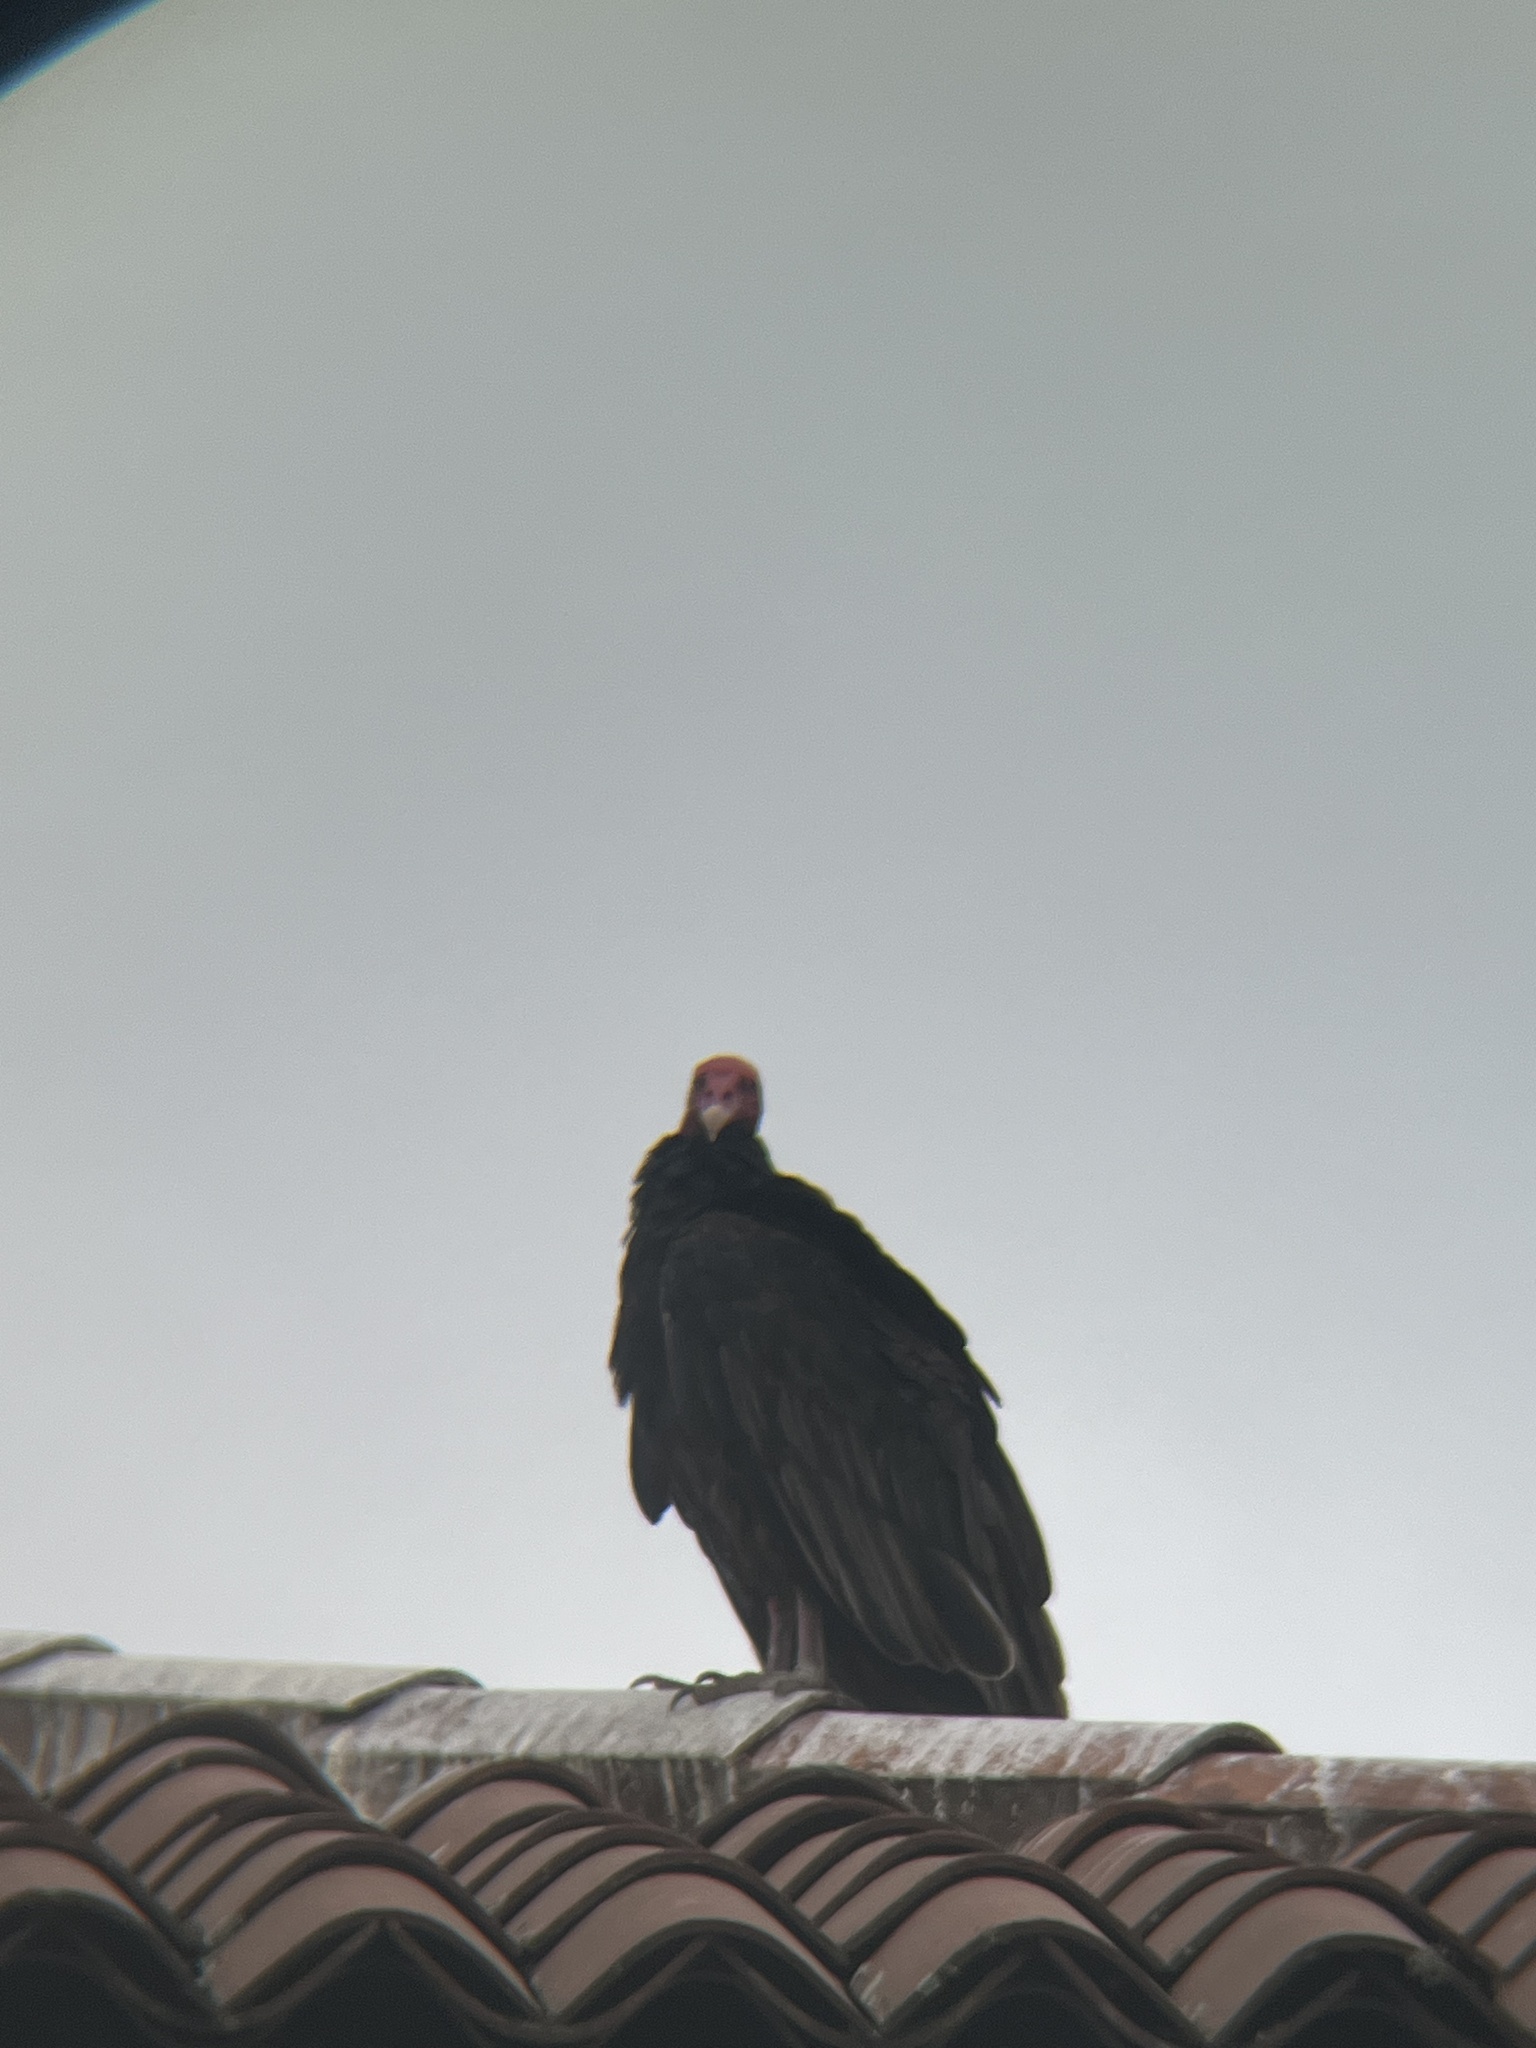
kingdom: Animalia
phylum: Chordata
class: Aves
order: Accipitriformes
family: Cathartidae
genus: Cathartes
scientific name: Cathartes aura
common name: Turkey vulture
